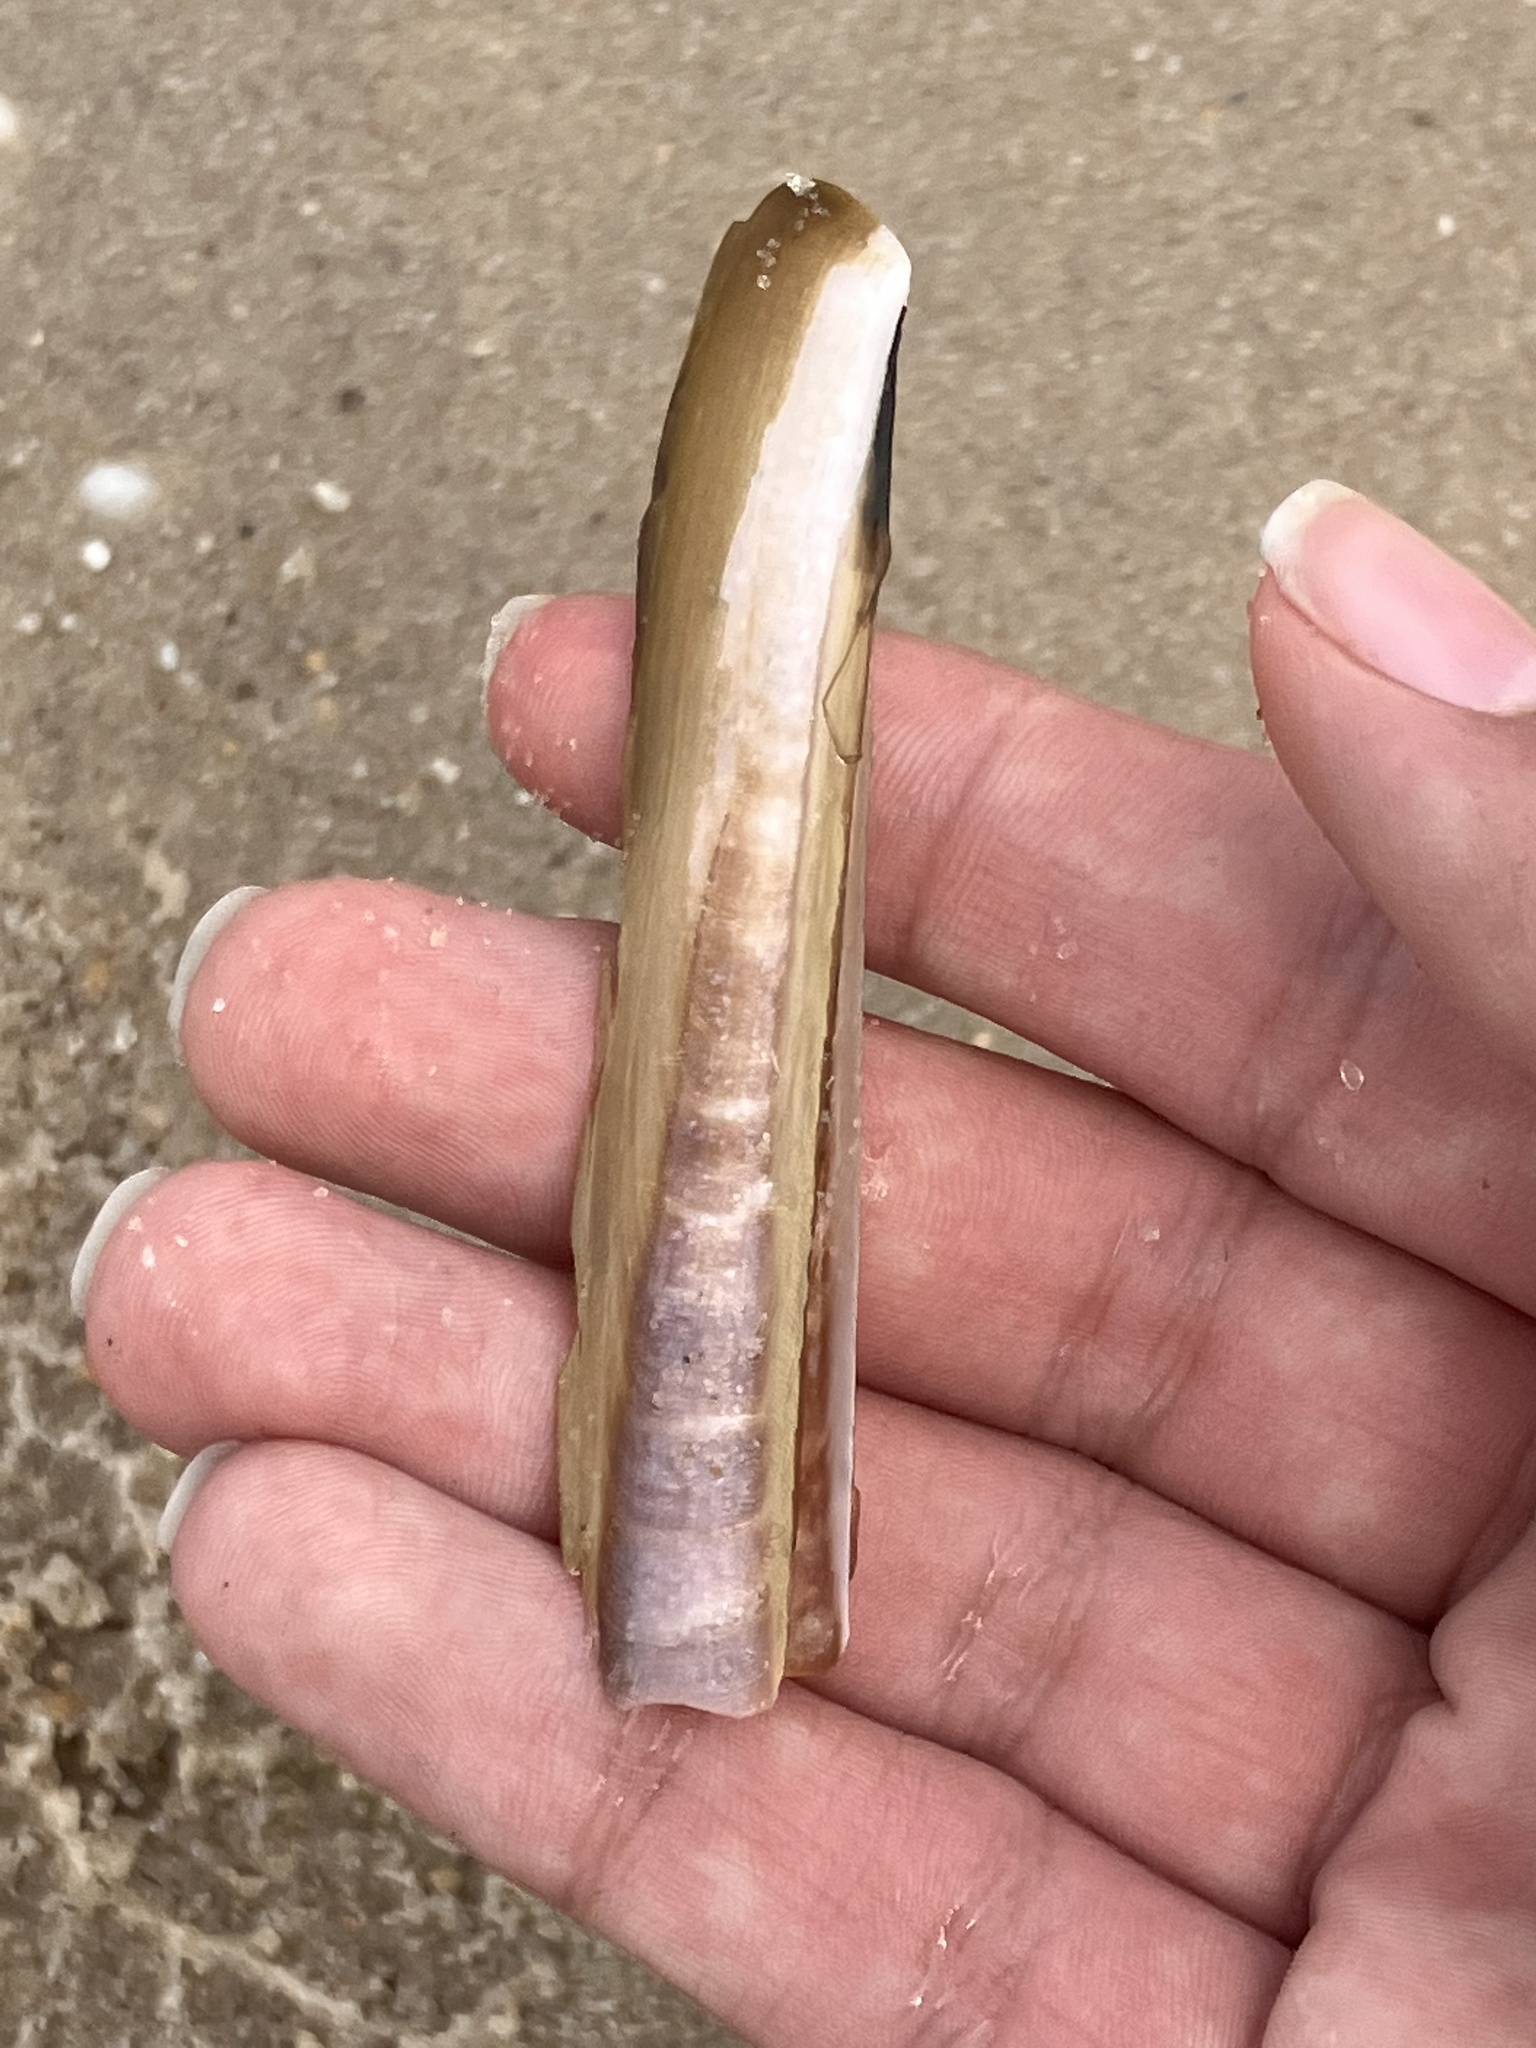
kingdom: Animalia
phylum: Mollusca
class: Bivalvia
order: Adapedonta
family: Pharidae
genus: Ensis
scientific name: Ensis leei
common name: American jack knife clam
